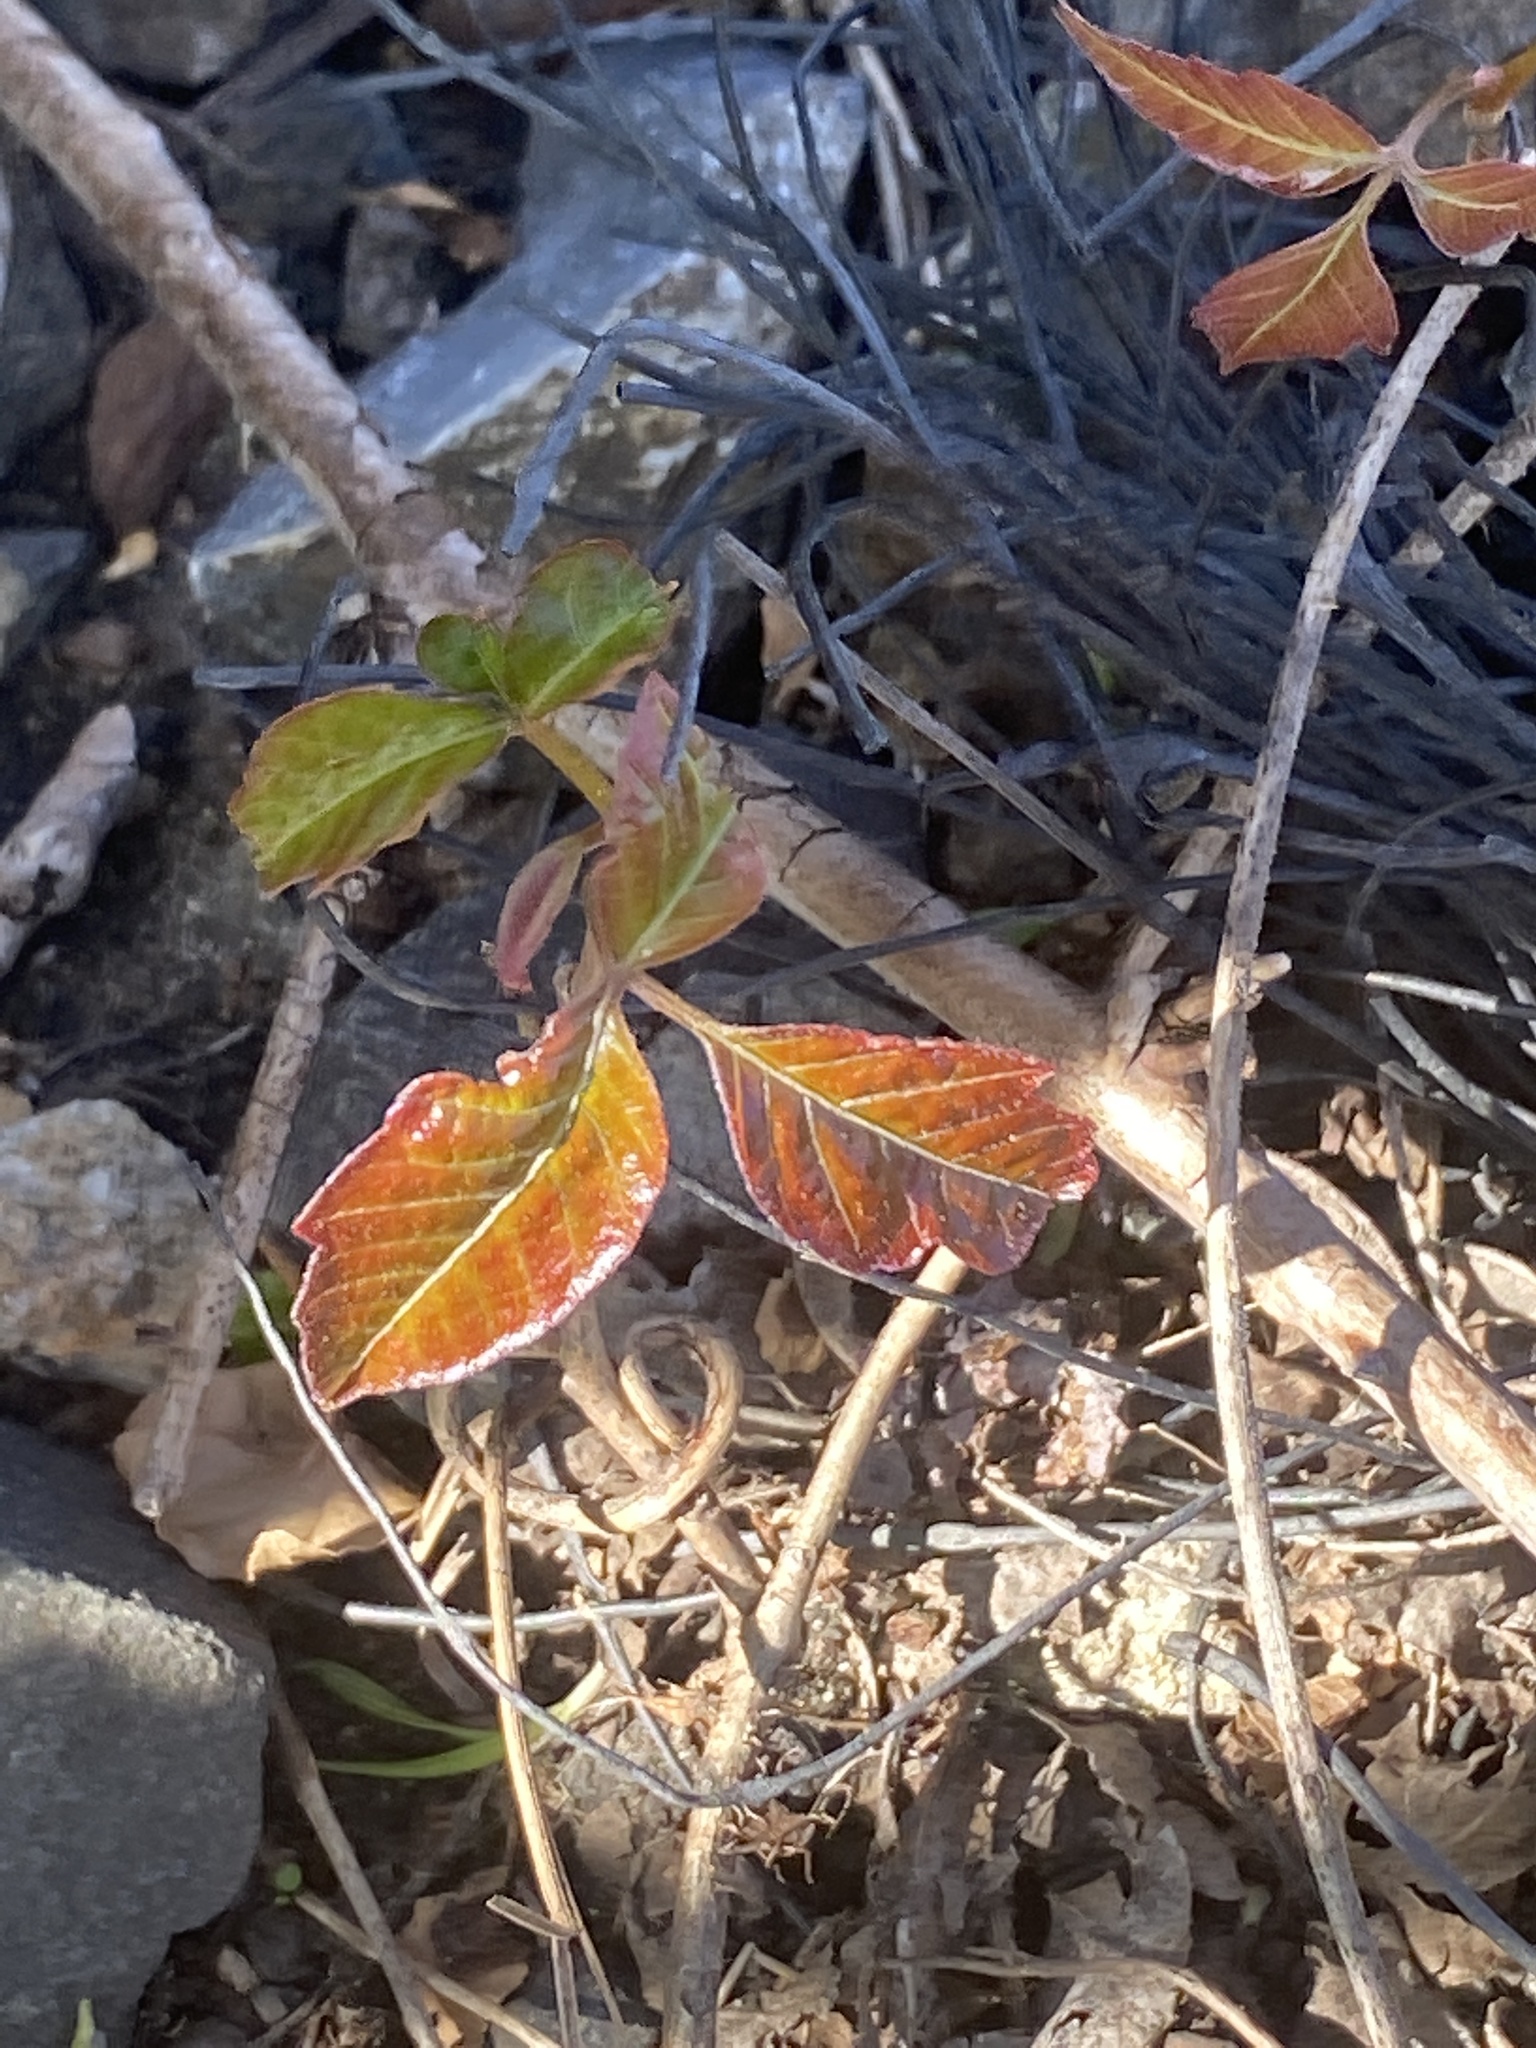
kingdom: Plantae
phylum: Tracheophyta
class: Magnoliopsida
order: Sapindales
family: Anacardiaceae
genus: Toxicodendron
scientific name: Toxicodendron radicans
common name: Poison ivy
